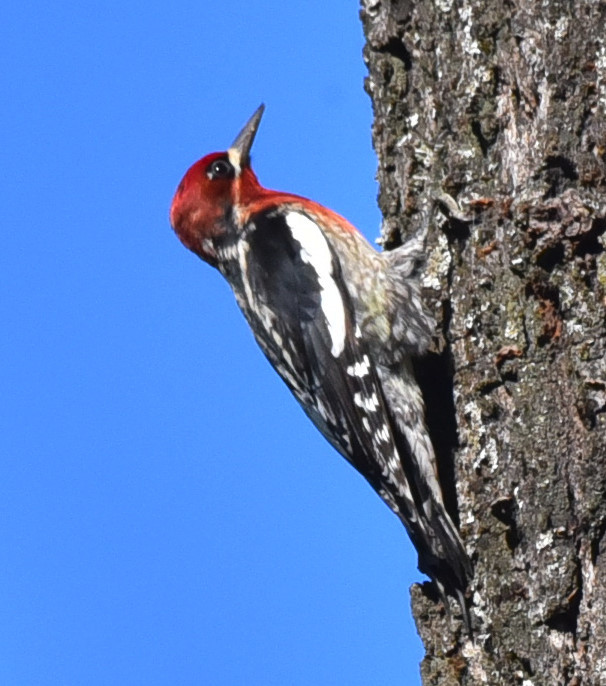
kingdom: Animalia
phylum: Chordata
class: Aves
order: Piciformes
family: Picidae
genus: Sphyrapicus
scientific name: Sphyrapicus ruber
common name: Red-breasted sapsucker
